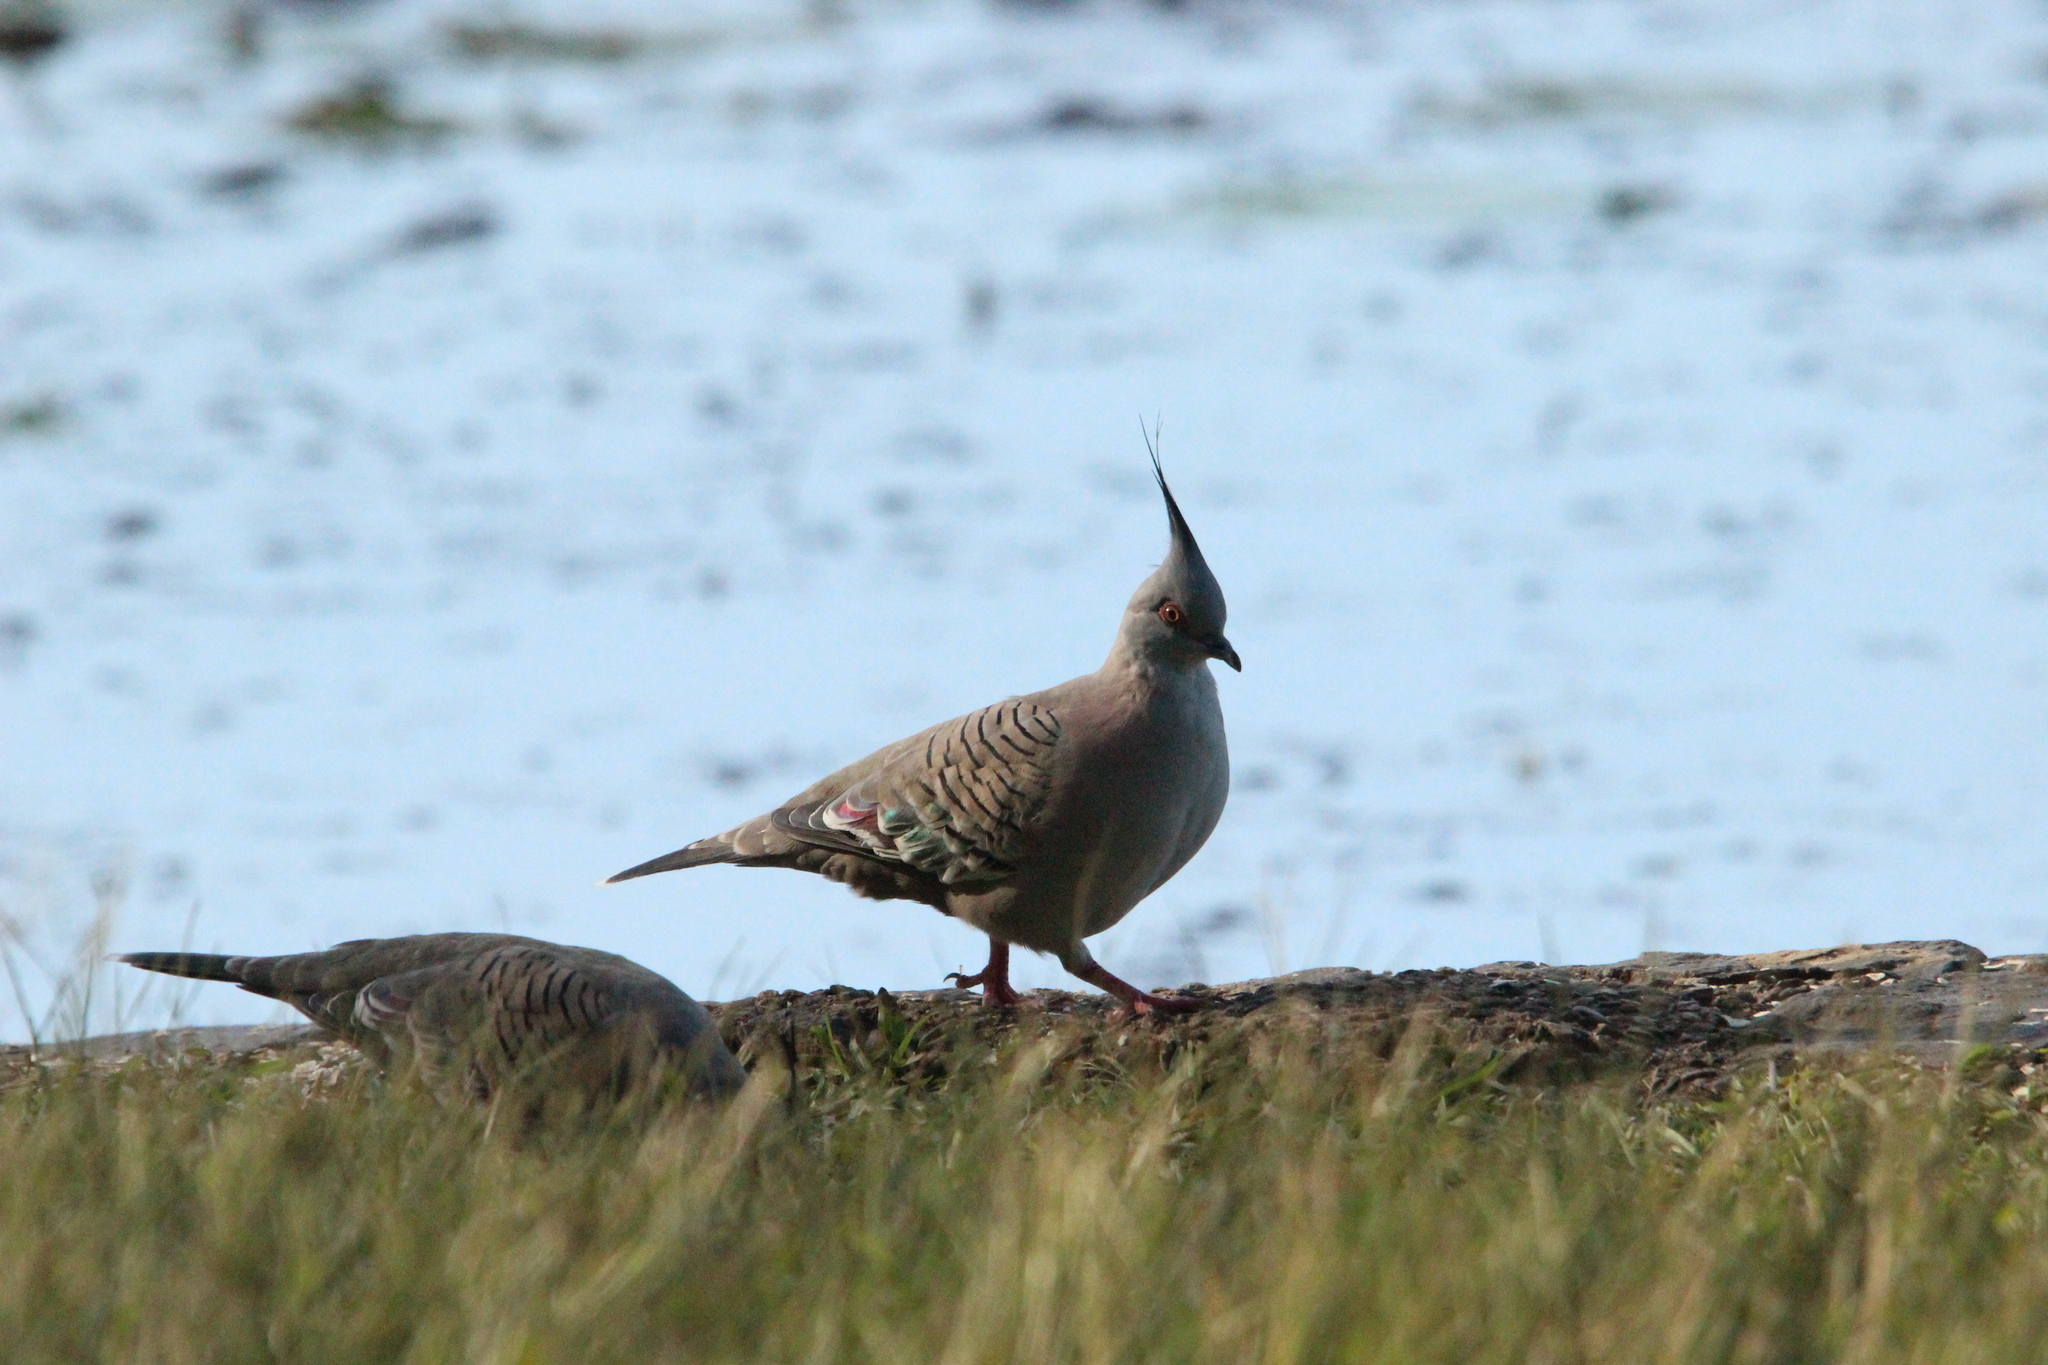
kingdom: Animalia
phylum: Chordata
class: Aves
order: Columbiformes
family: Columbidae
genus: Ocyphaps
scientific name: Ocyphaps lophotes
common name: Crested pigeon
